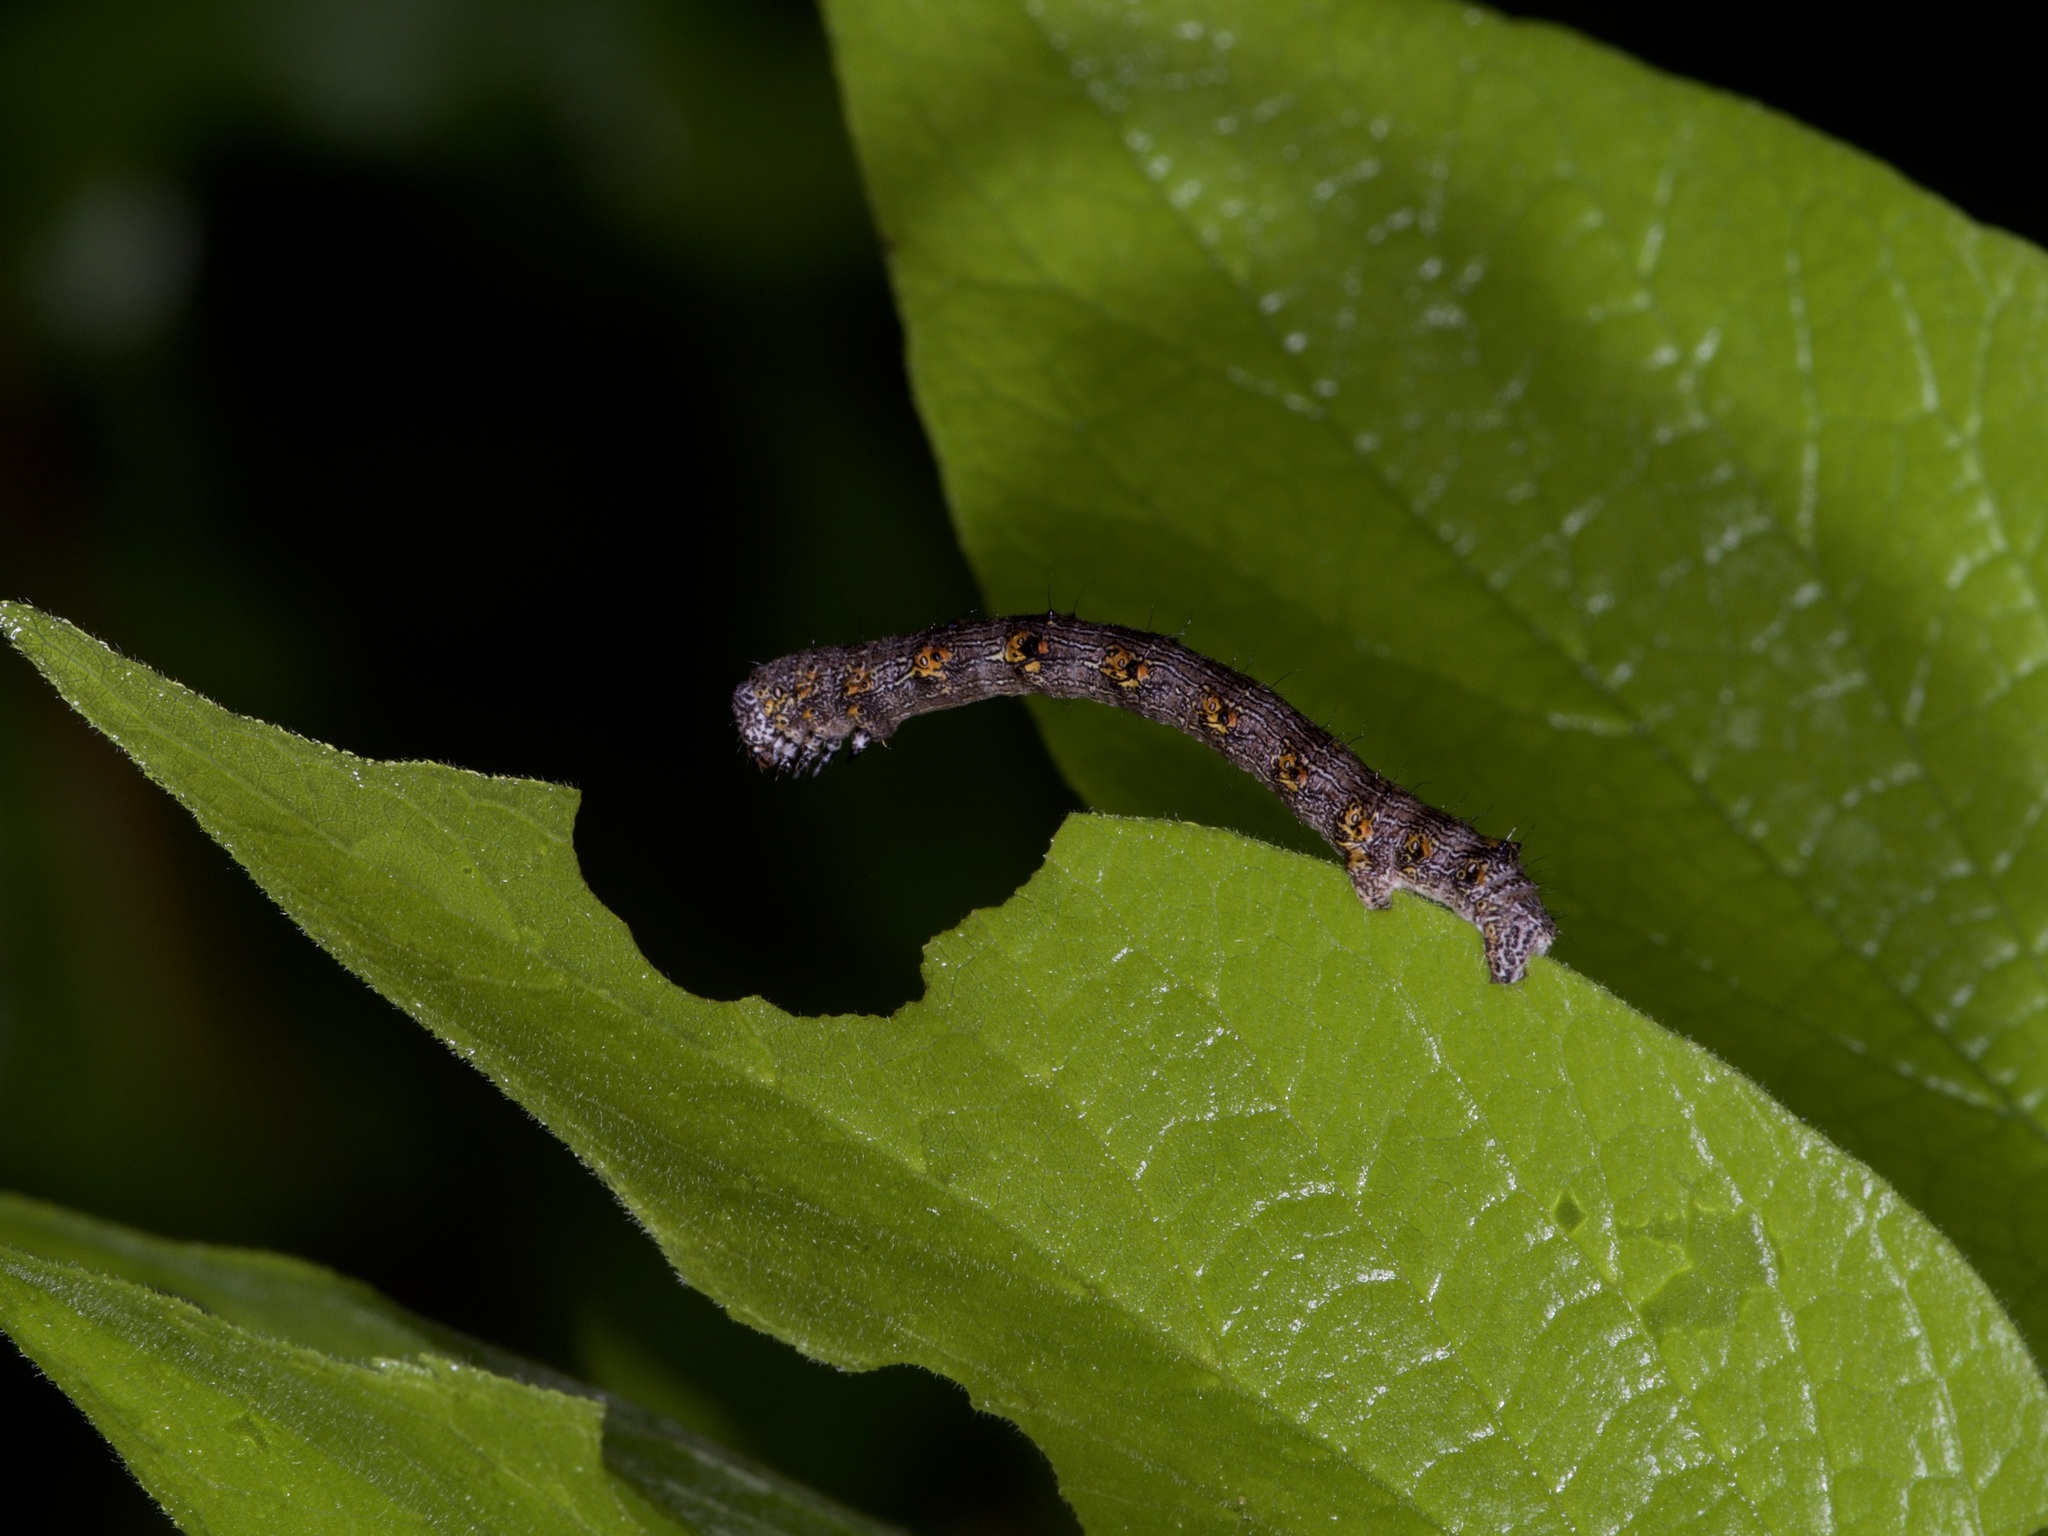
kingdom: Animalia
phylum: Arthropoda
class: Insecta
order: Lepidoptera
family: Geometridae
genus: Phigalia
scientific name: Phigalia titea
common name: Spiny looper
